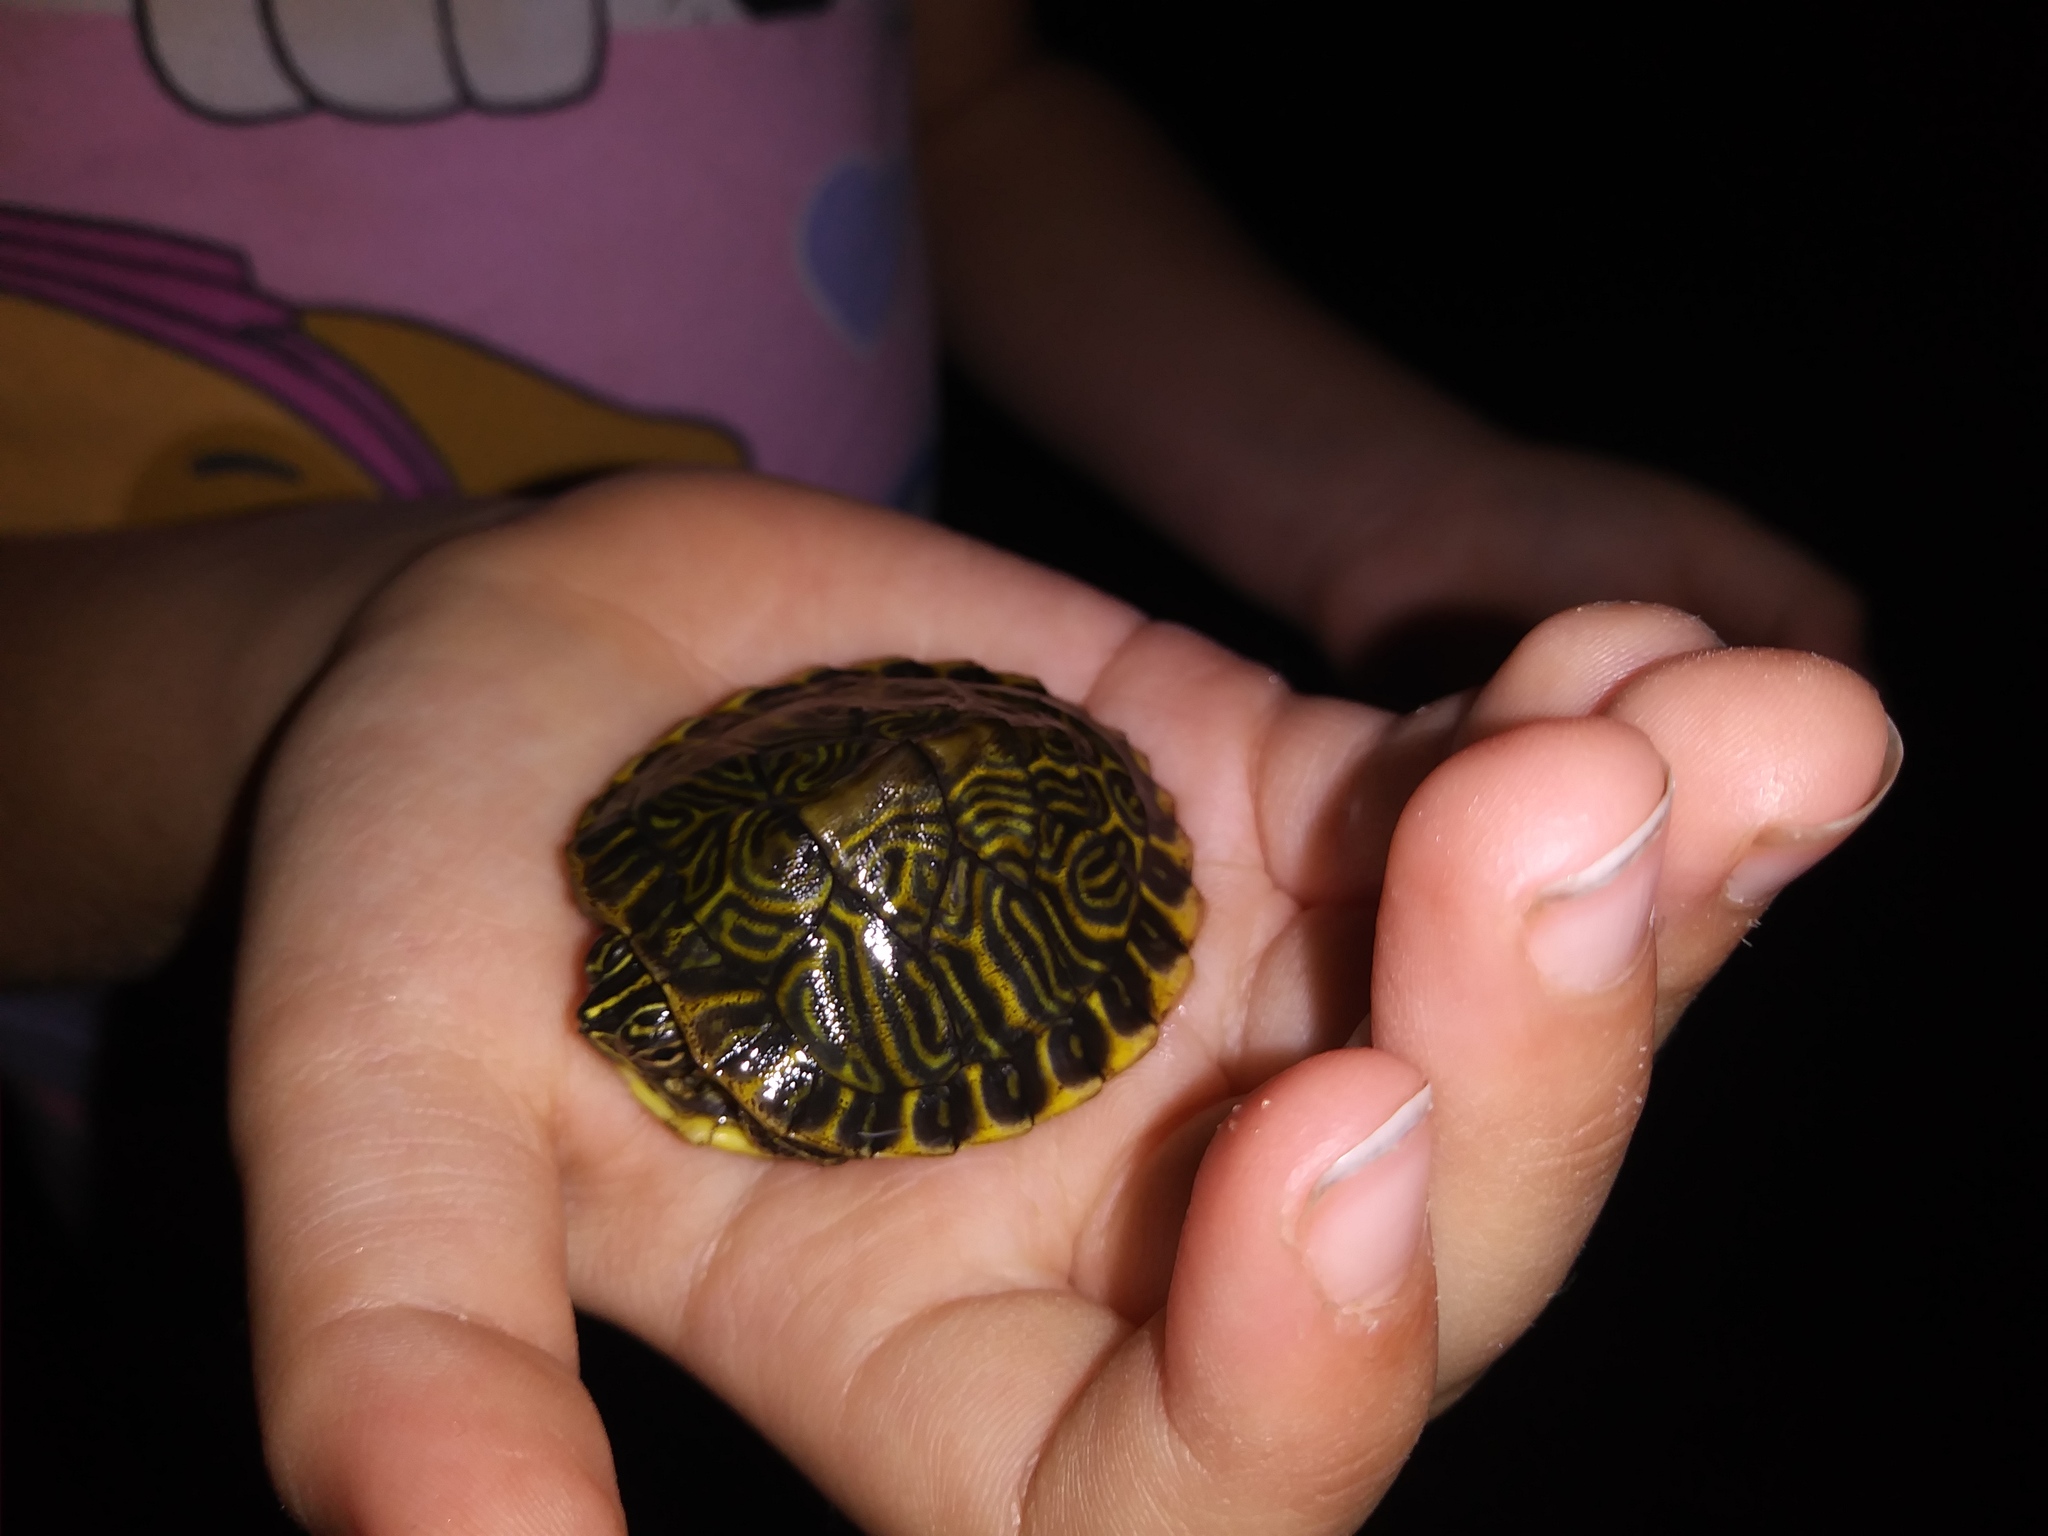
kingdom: Animalia
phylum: Chordata
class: Testudines
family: Emydidae
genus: Pseudemys
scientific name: Pseudemys
